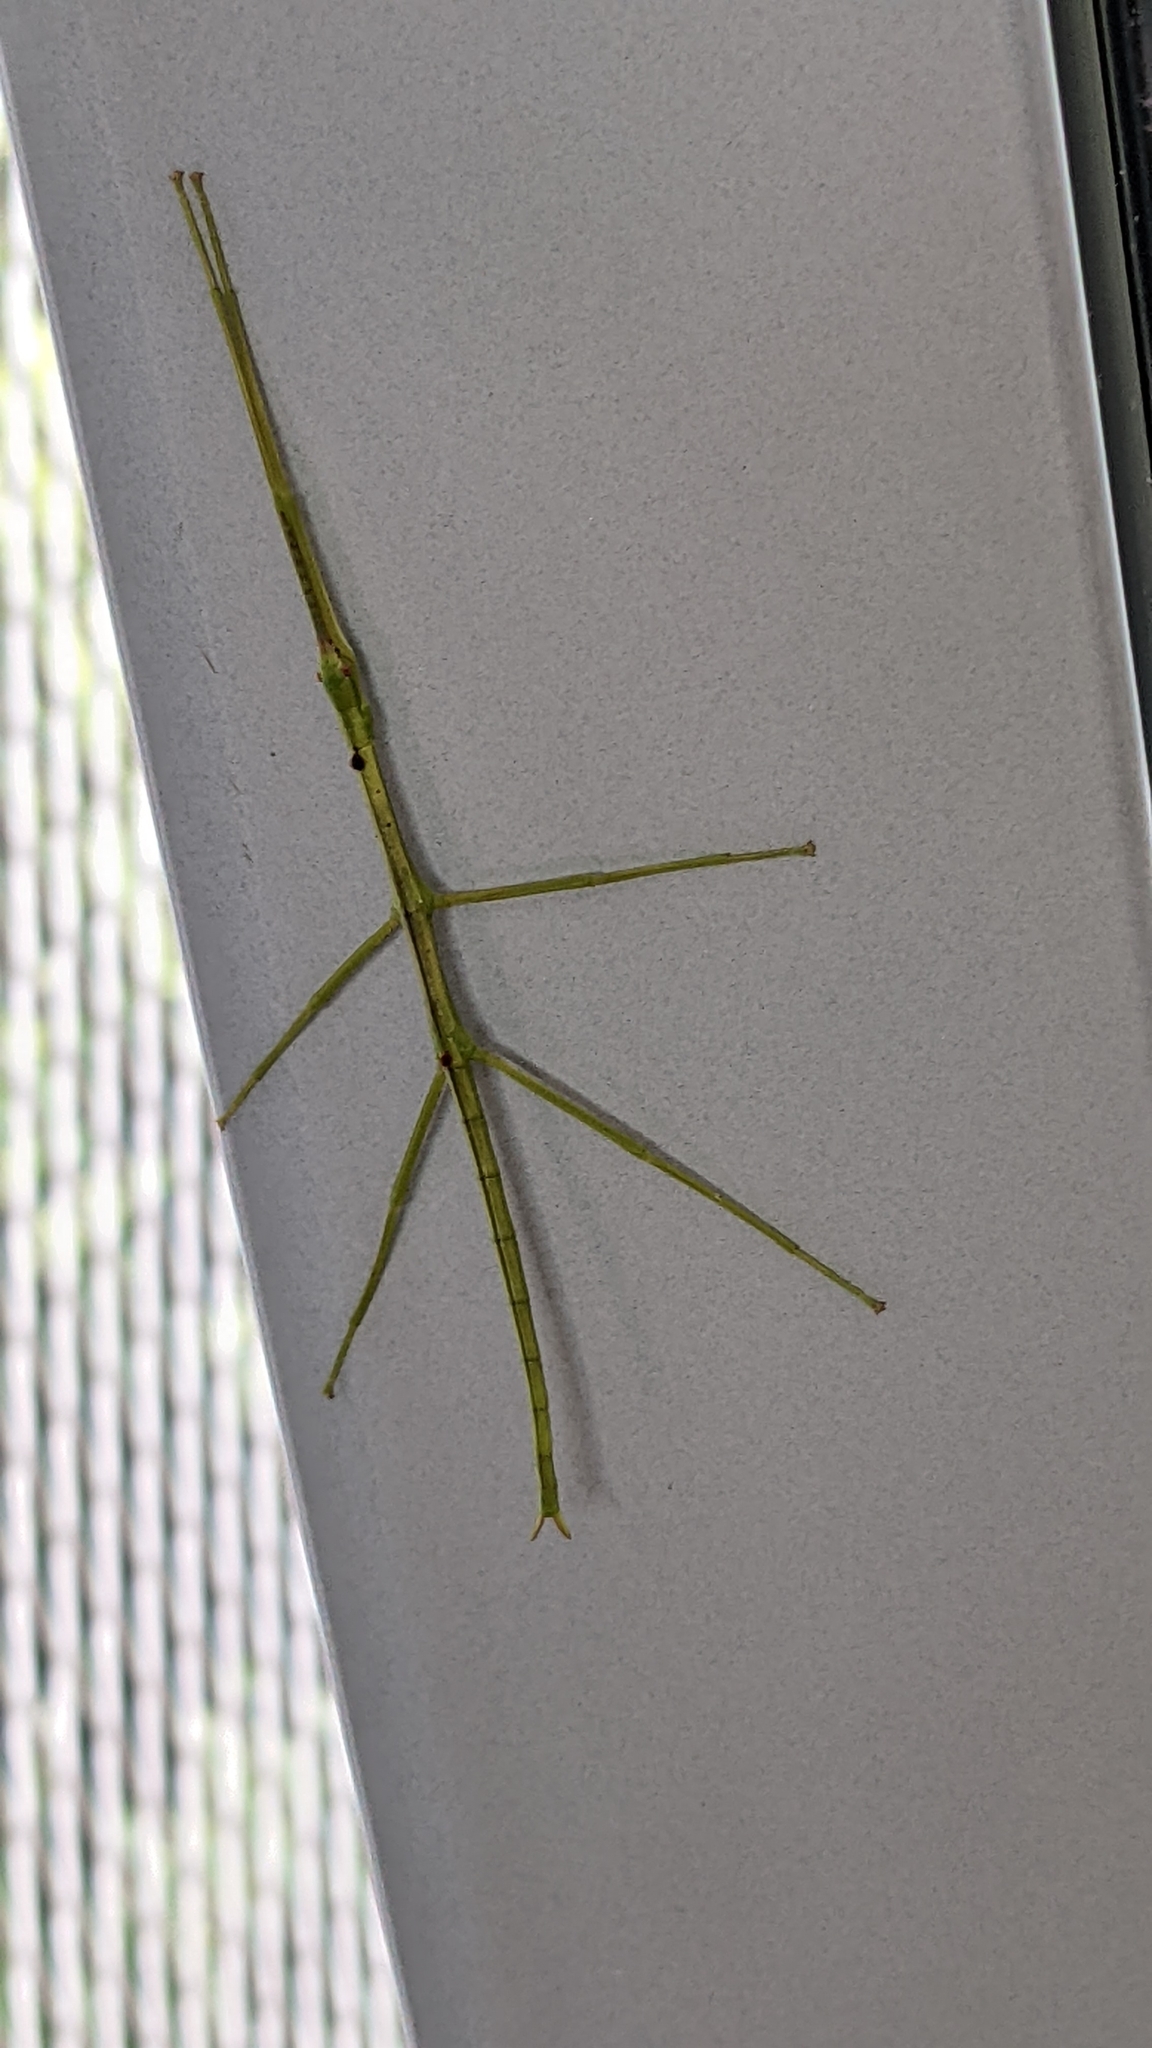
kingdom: Animalia
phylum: Arthropoda
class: Insecta
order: Phasmida
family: Phasmatidae
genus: Clitarchus
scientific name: Clitarchus hookeri
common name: Smooth stick insect
